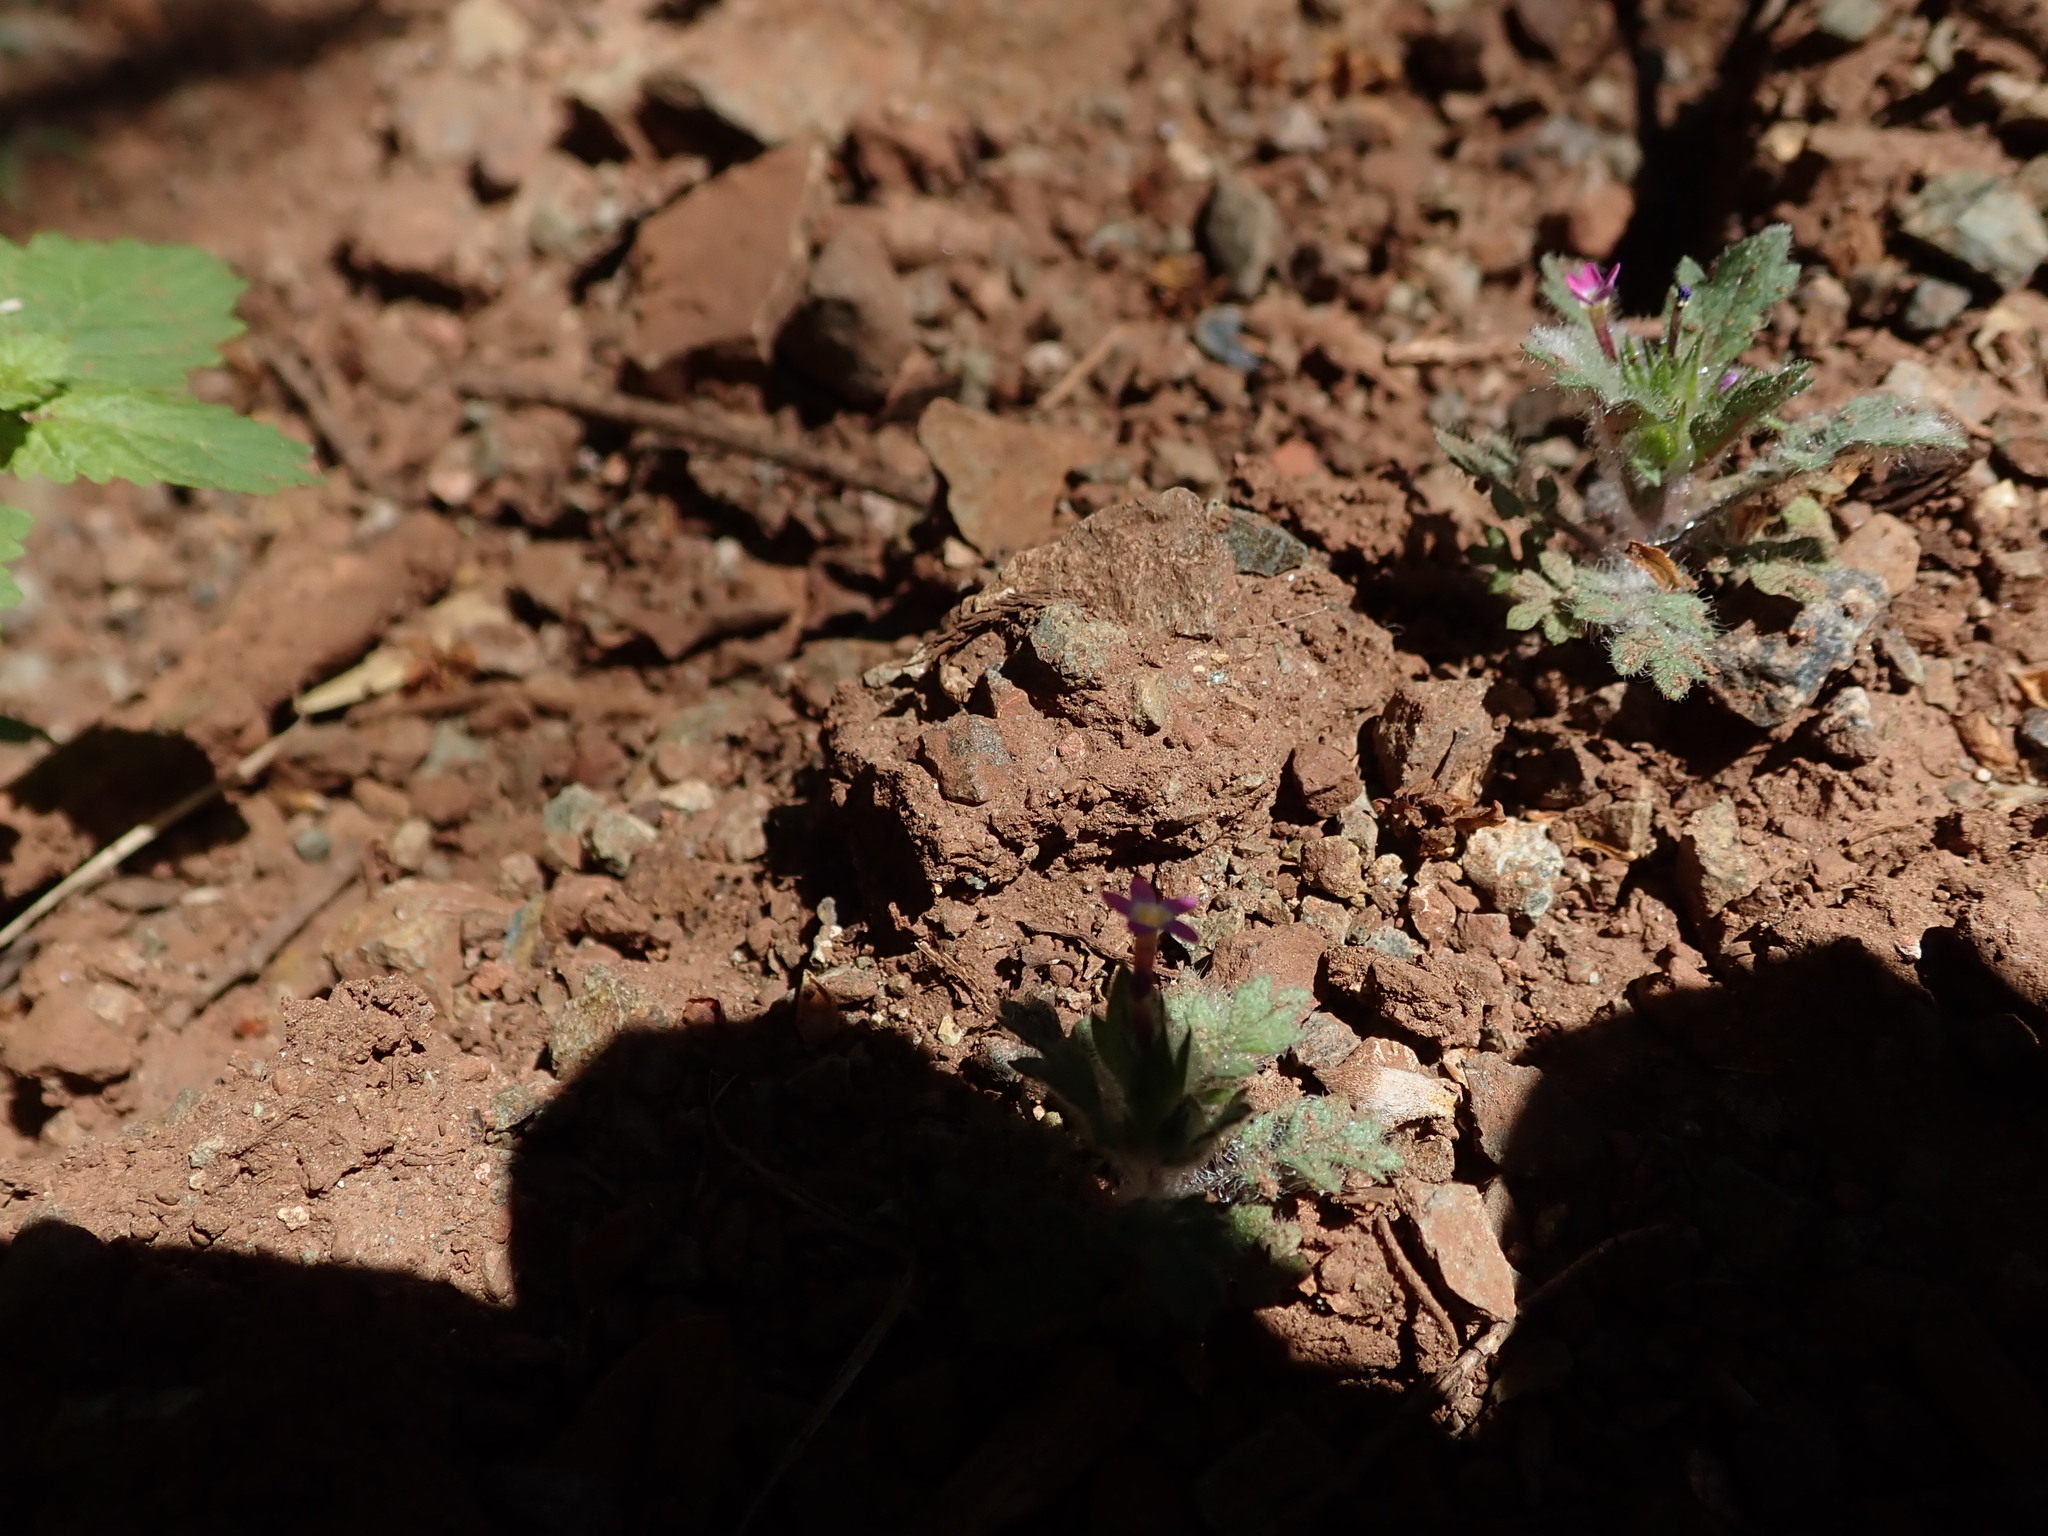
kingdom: Plantae
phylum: Tracheophyta
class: Magnoliopsida
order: Ericales
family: Polemoniaceae
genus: Collomia
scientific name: Collomia heterophylla
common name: Variable-leaved collomia
